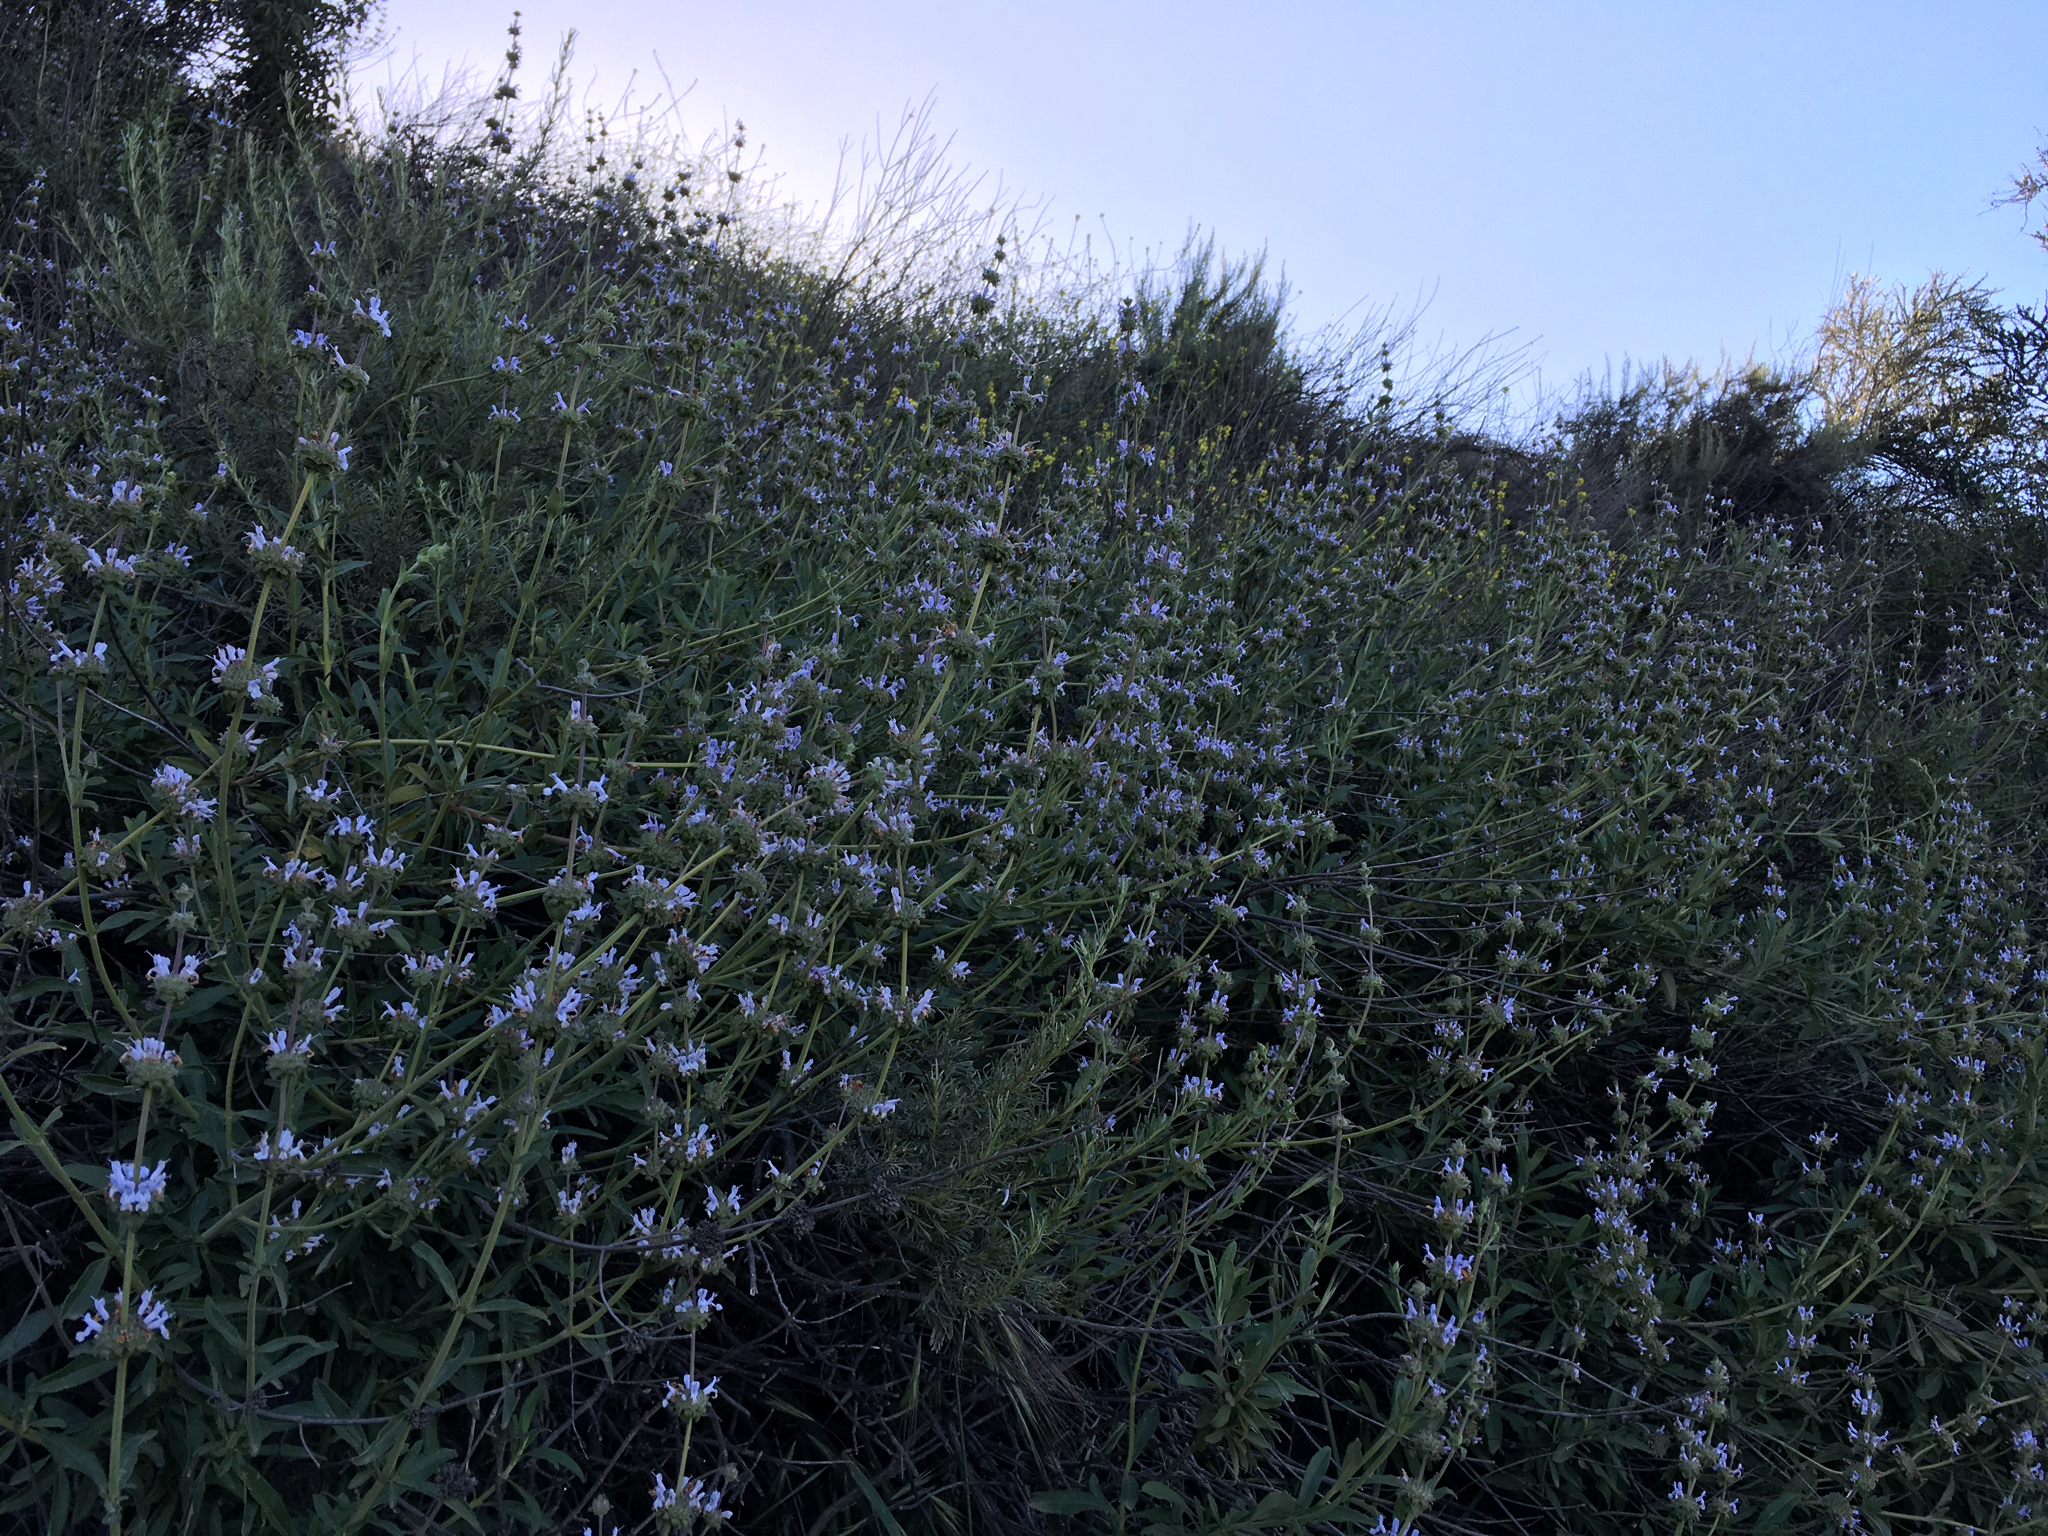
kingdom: Plantae
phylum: Tracheophyta
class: Magnoliopsida
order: Lamiales
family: Lamiaceae
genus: Salvia
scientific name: Salvia mellifera
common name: Black sage
